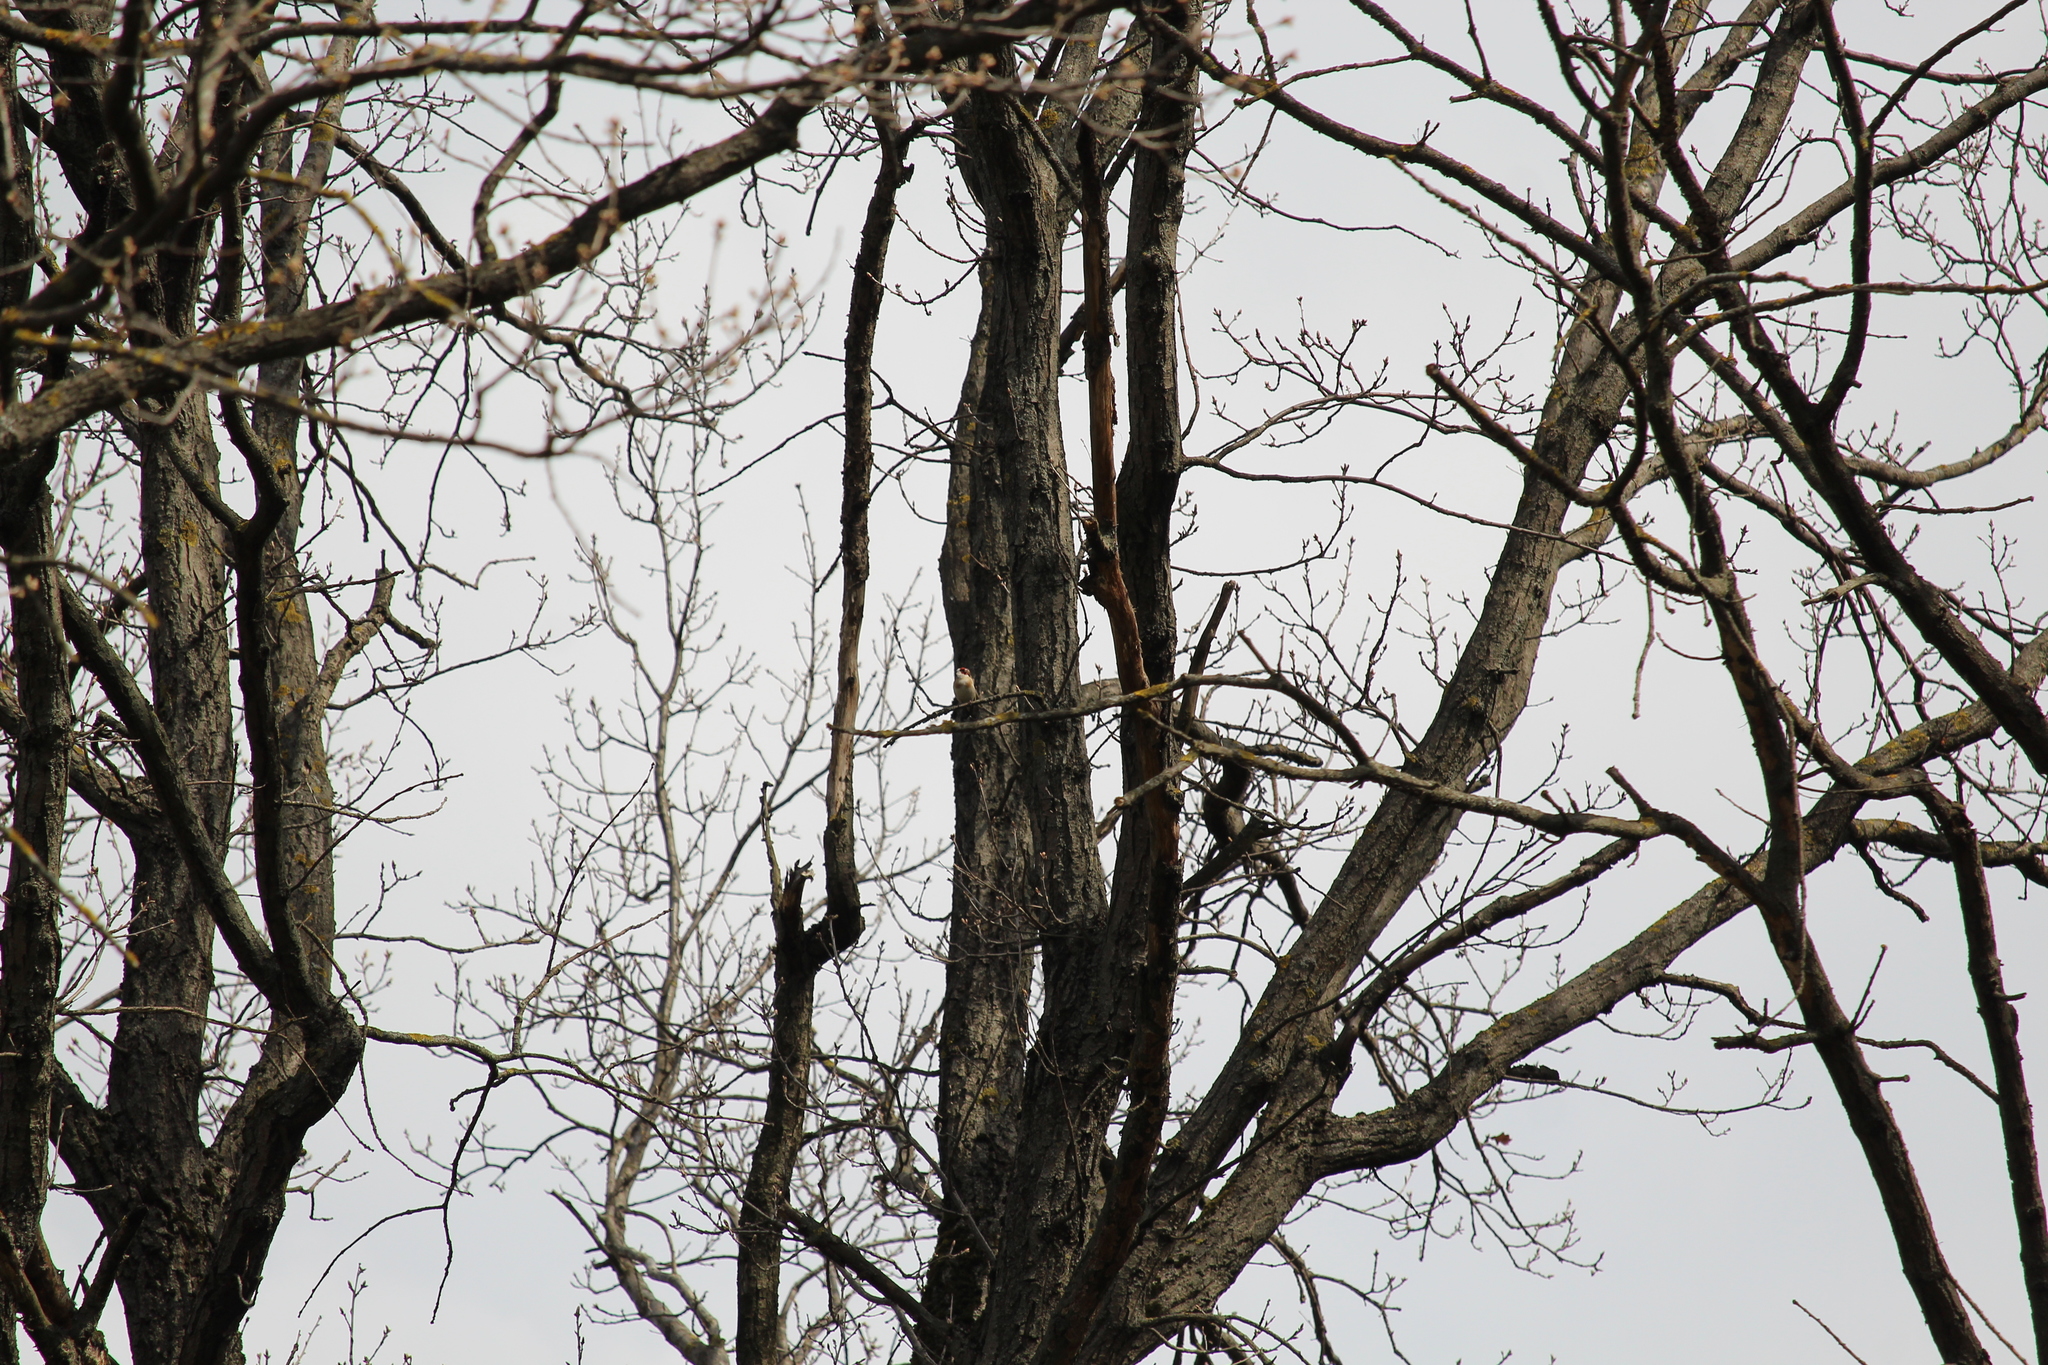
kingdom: Animalia
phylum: Chordata
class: Aves
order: Passeriformes
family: Fringillidae
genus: Carduelis
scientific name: Carduelis carduelis
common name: European goldfinch
